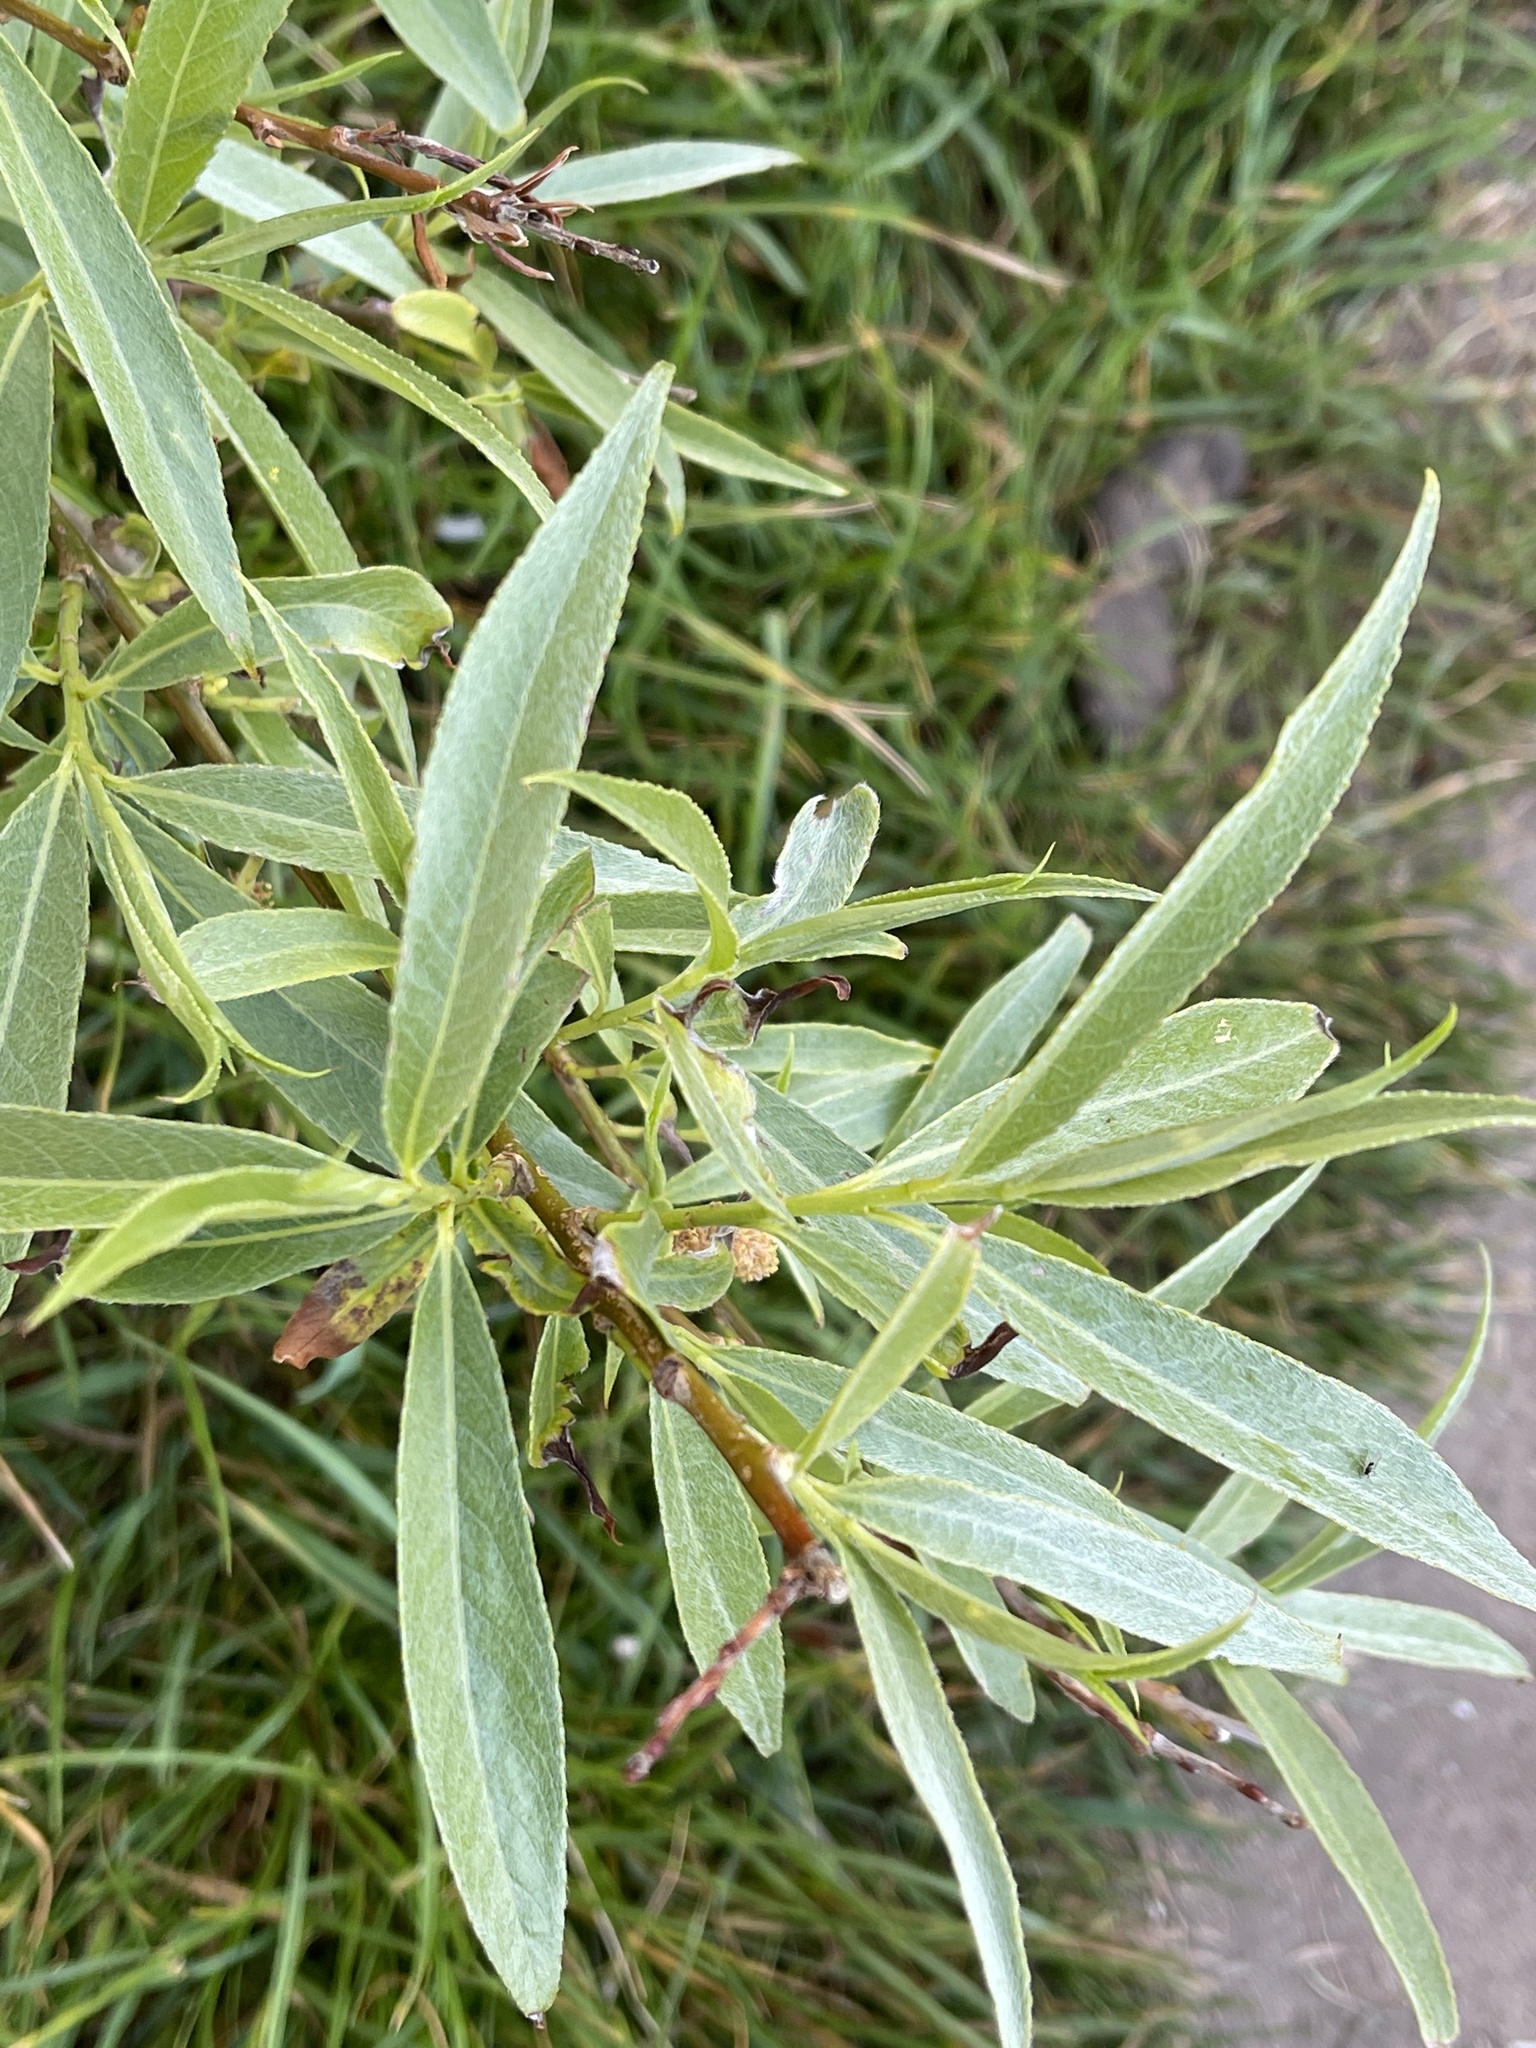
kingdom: Plantae
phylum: Tracheophyta
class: Magnoliopsida
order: Malpighiales
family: Salicaceae
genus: Salix
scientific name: Salix alba
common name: White willow
